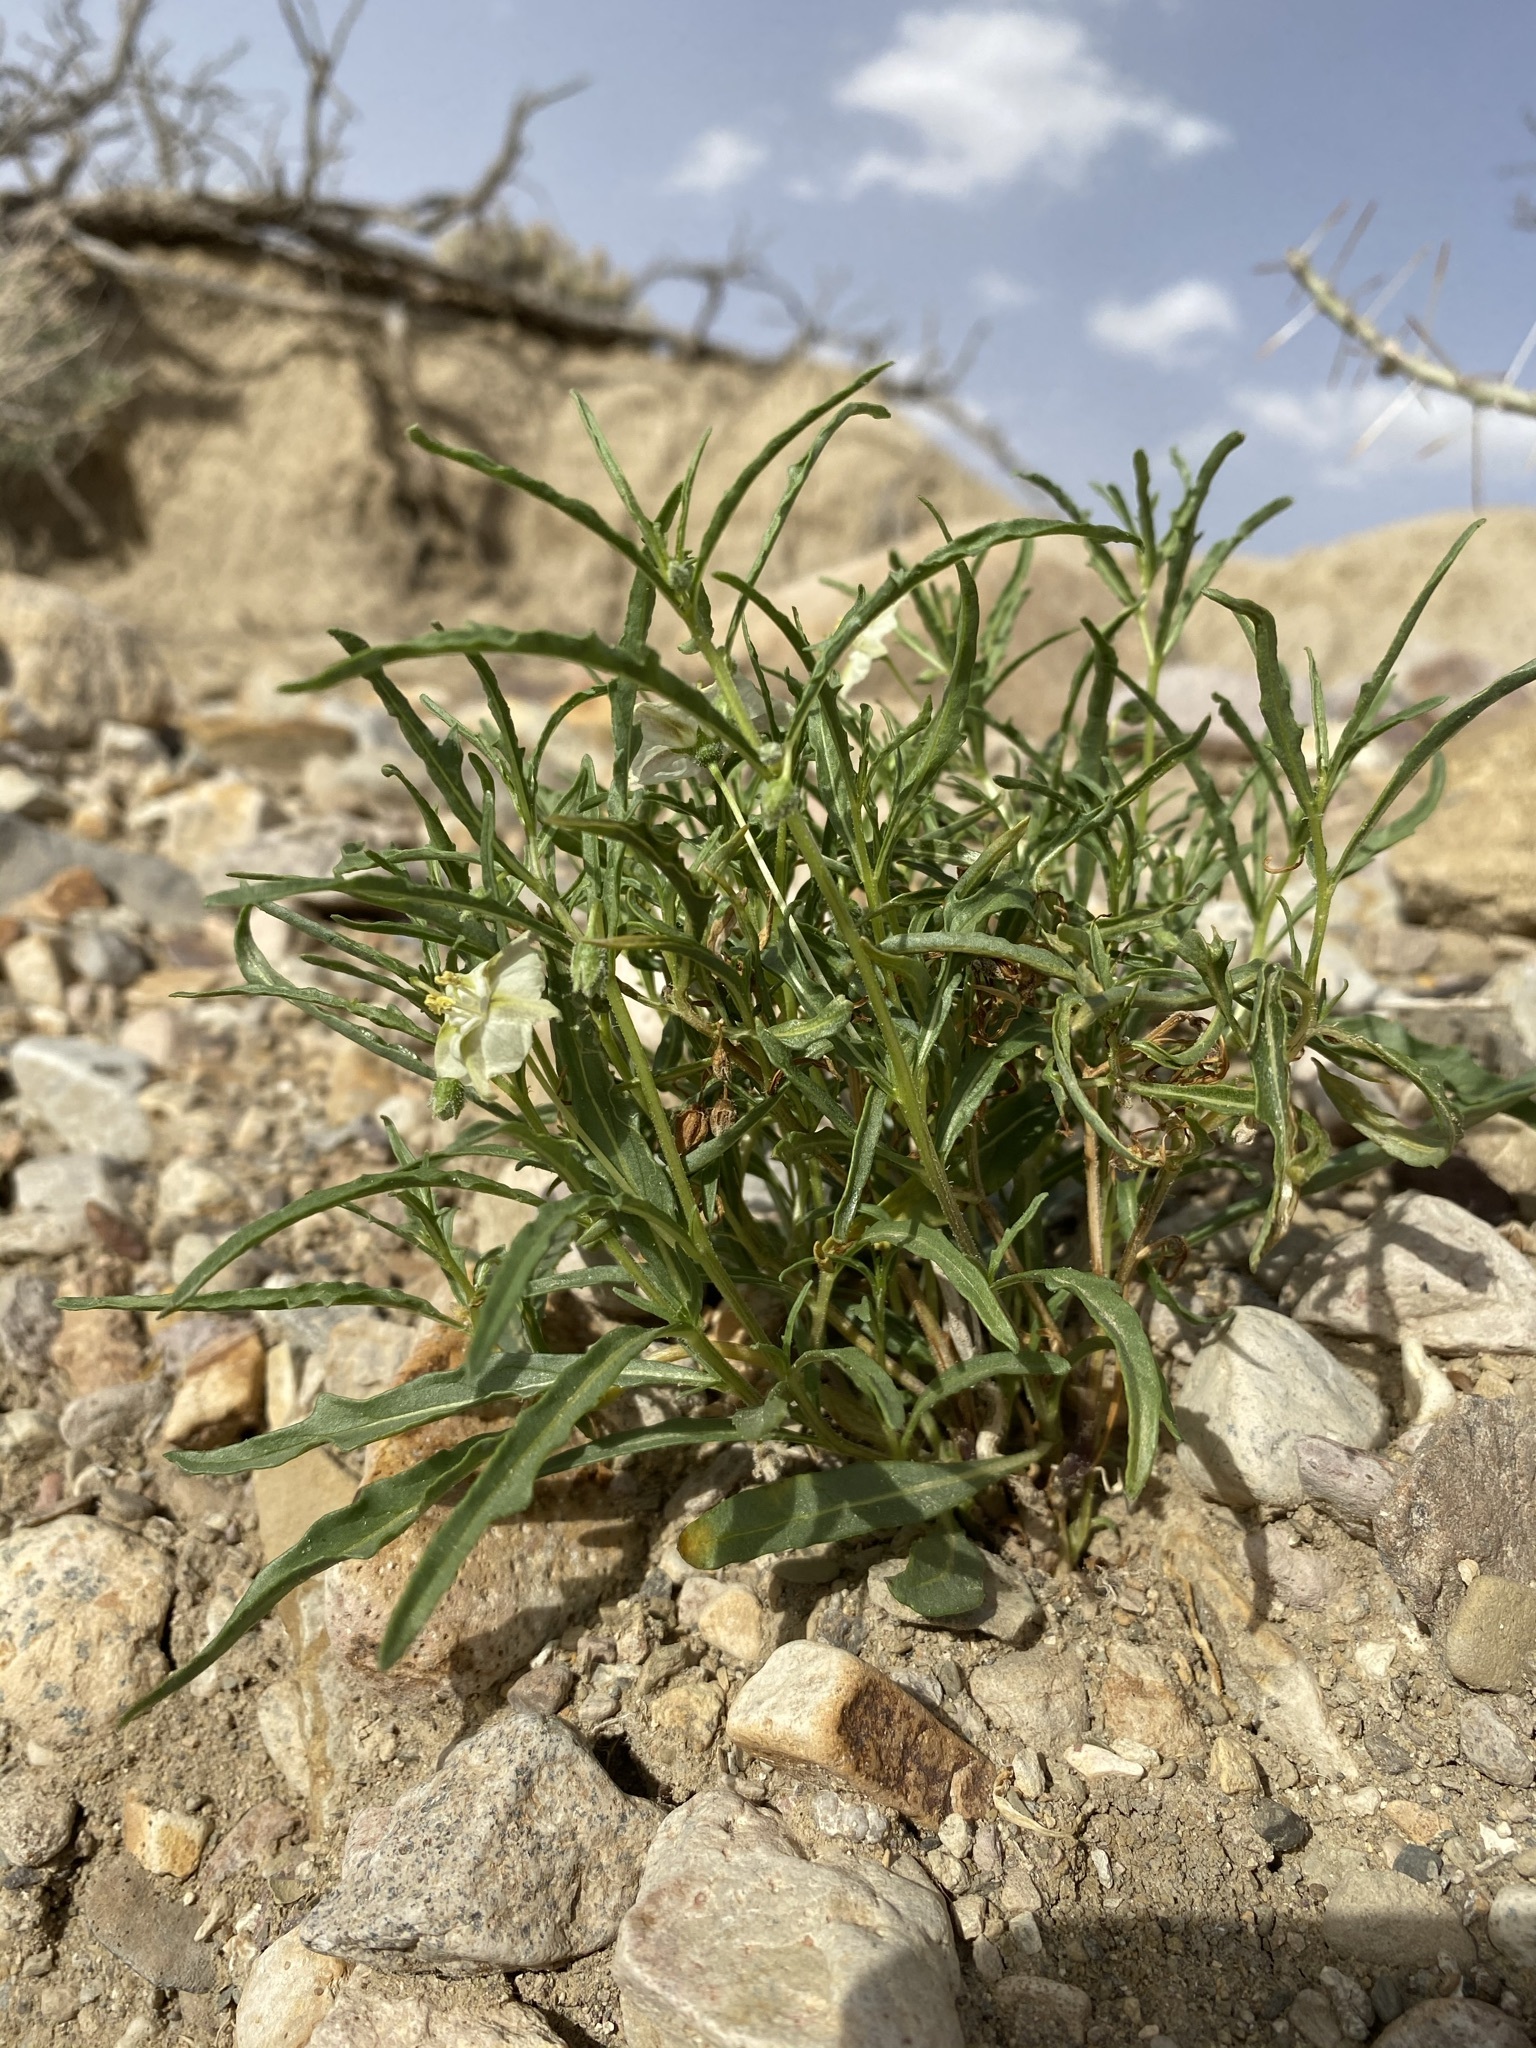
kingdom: Plantae
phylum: Tracheophyta
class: Magnoliopsida
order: Solanales
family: Solanaceae
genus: Chamaesaracha
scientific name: Chamaesaracha coronopus
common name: Smooth chamaesaracha
